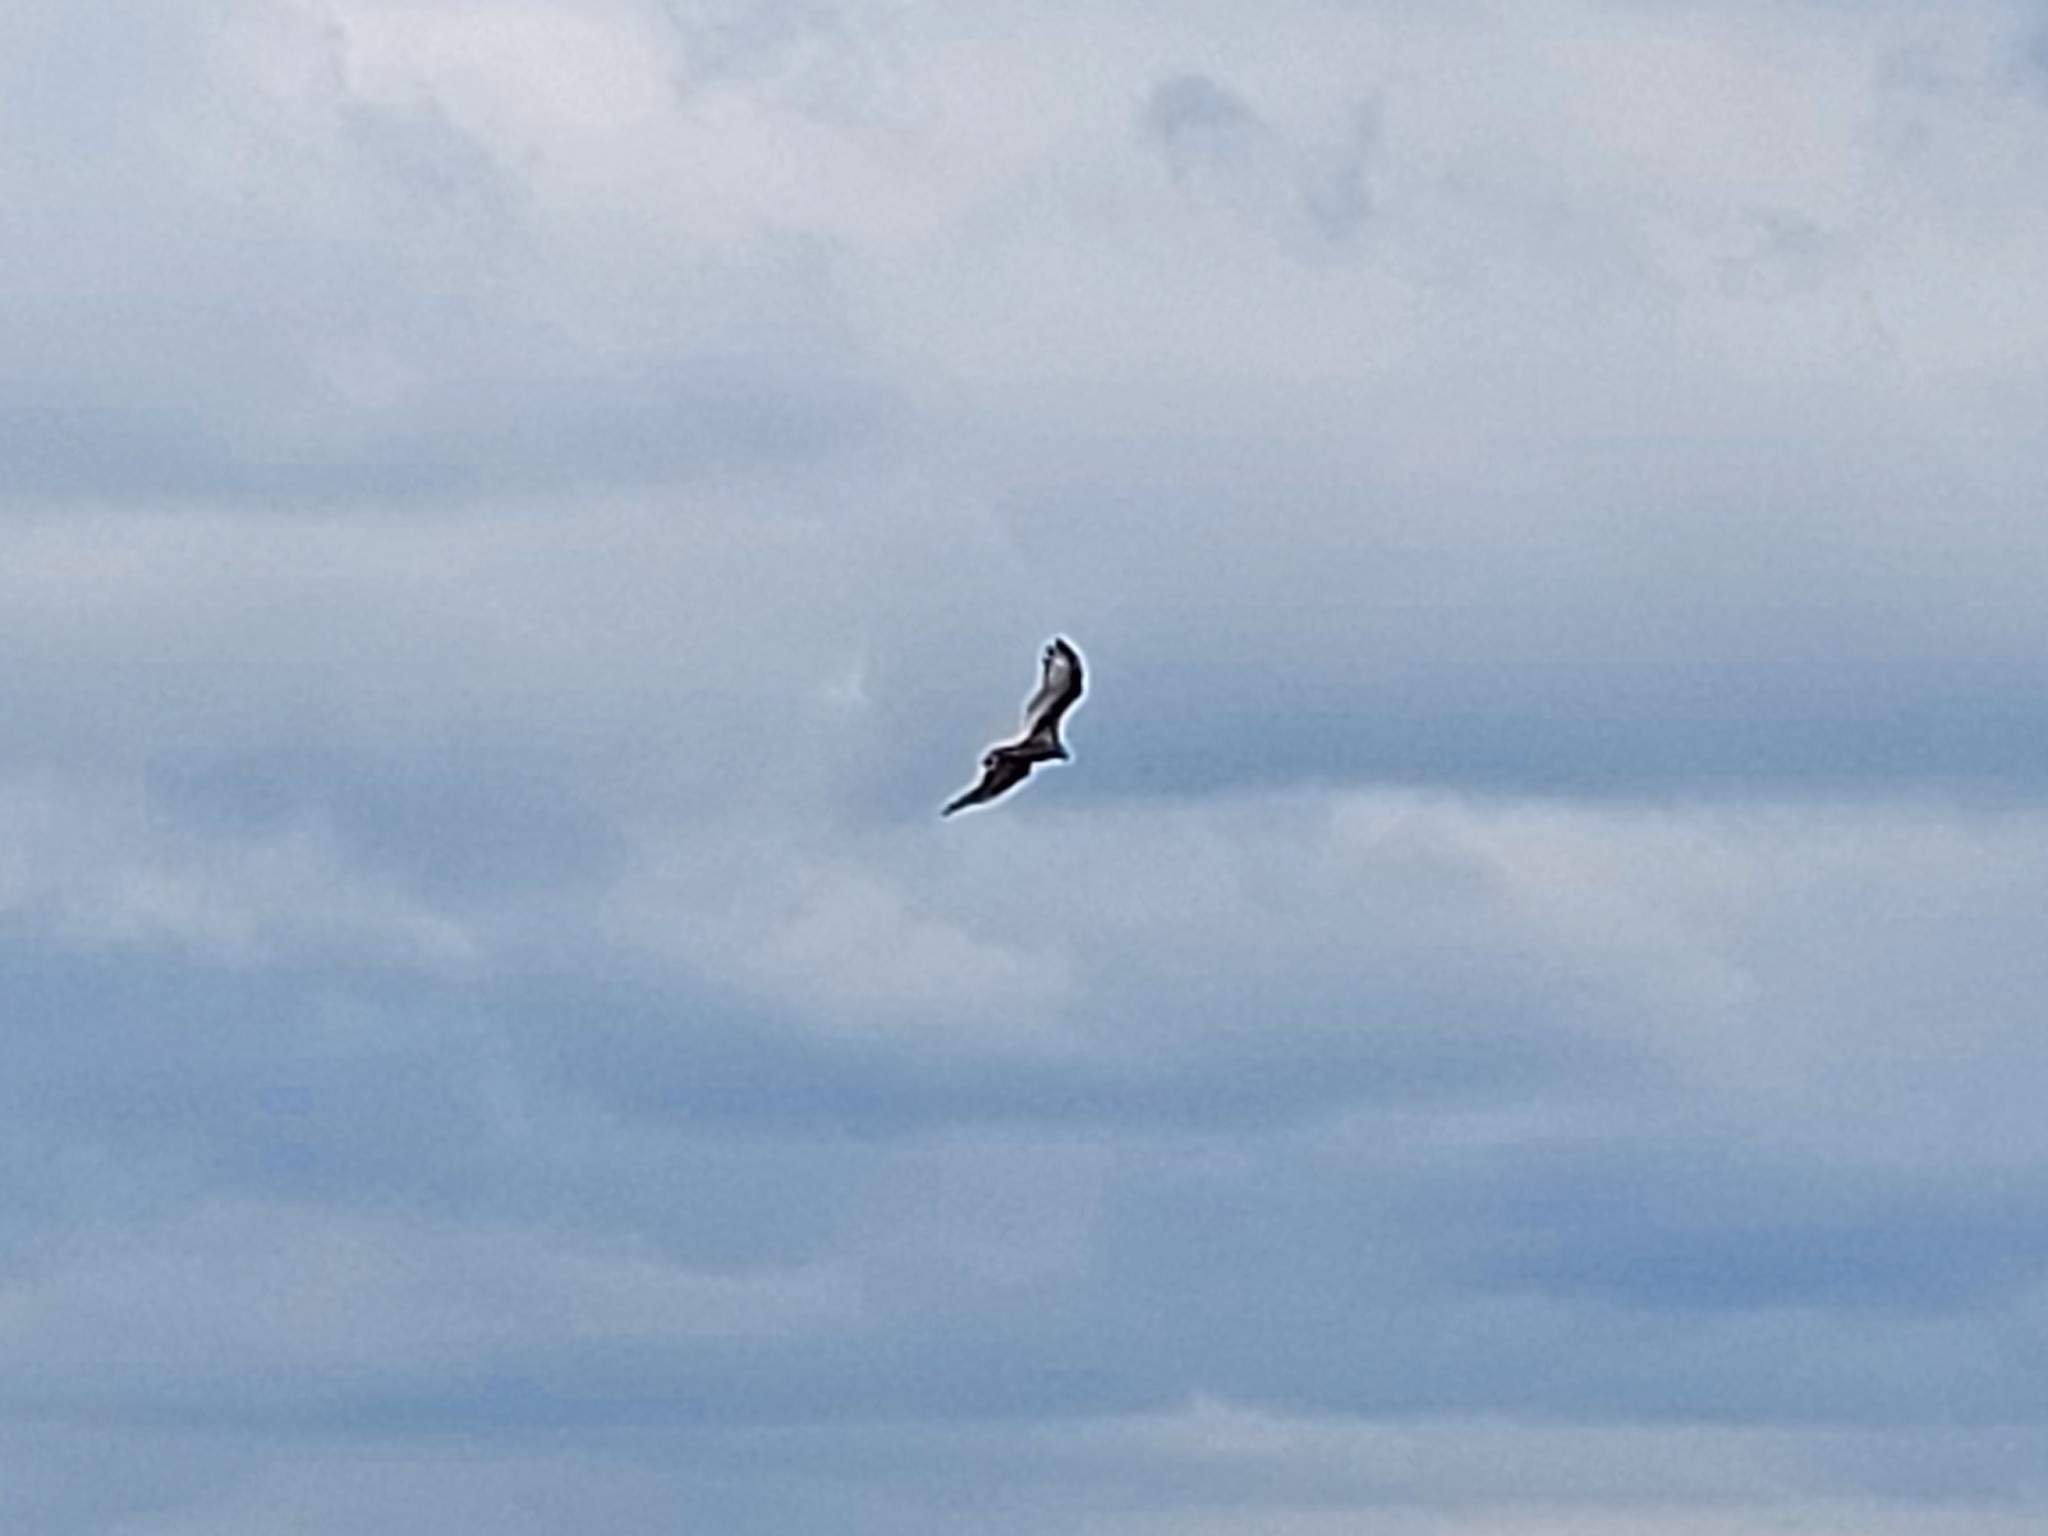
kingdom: Animalia
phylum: Chordata
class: Aves
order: Accipitriformes
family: Cathartidae
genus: Cathartes
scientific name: Cathartes aura
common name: Turkey vulture
